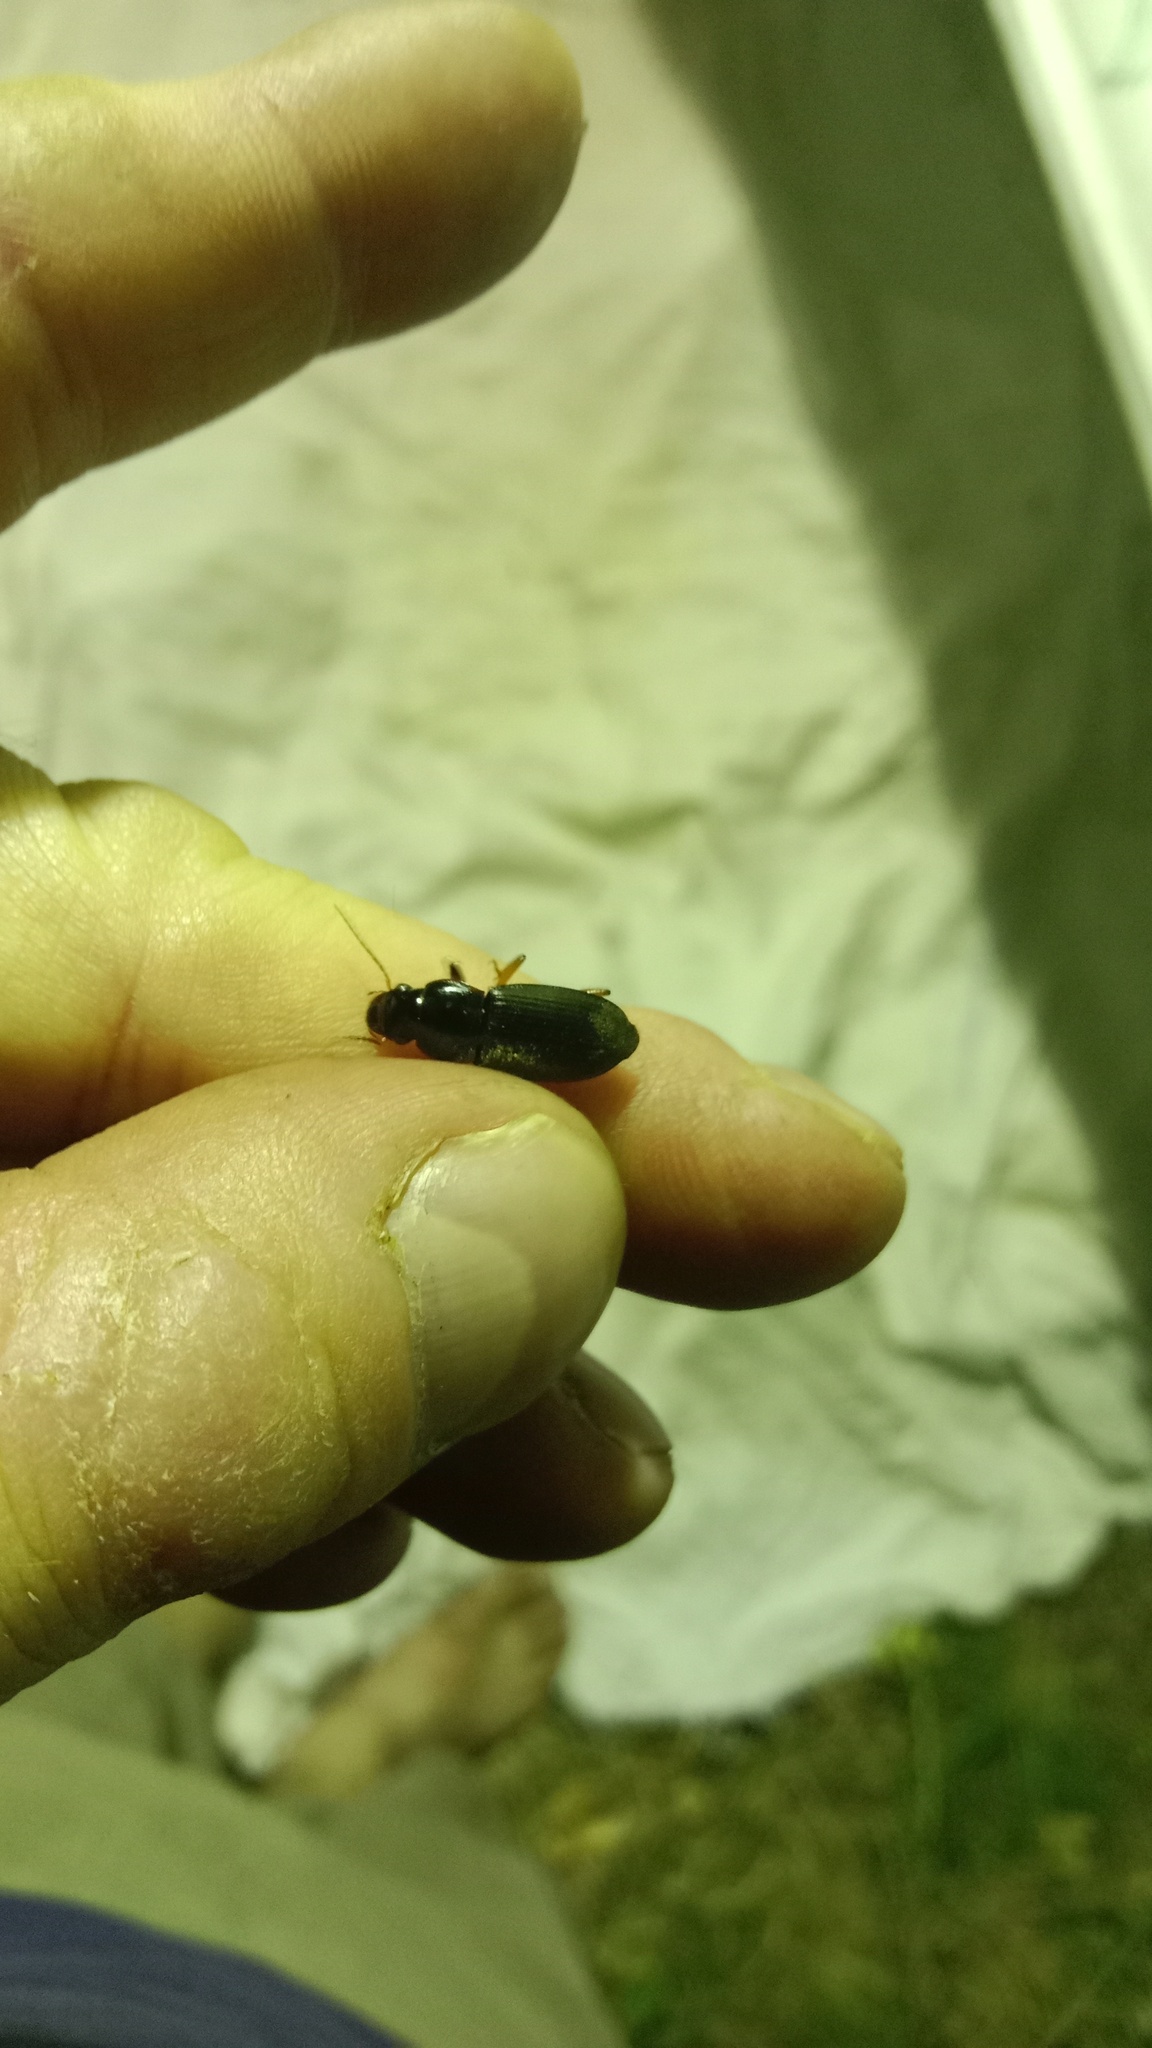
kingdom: Animalia
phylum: Arthropoda
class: Insecta
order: Coleoptera
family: Carabidae
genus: Harpalus
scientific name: Harpalus rufipes
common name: Strawberry harp ground beetle
